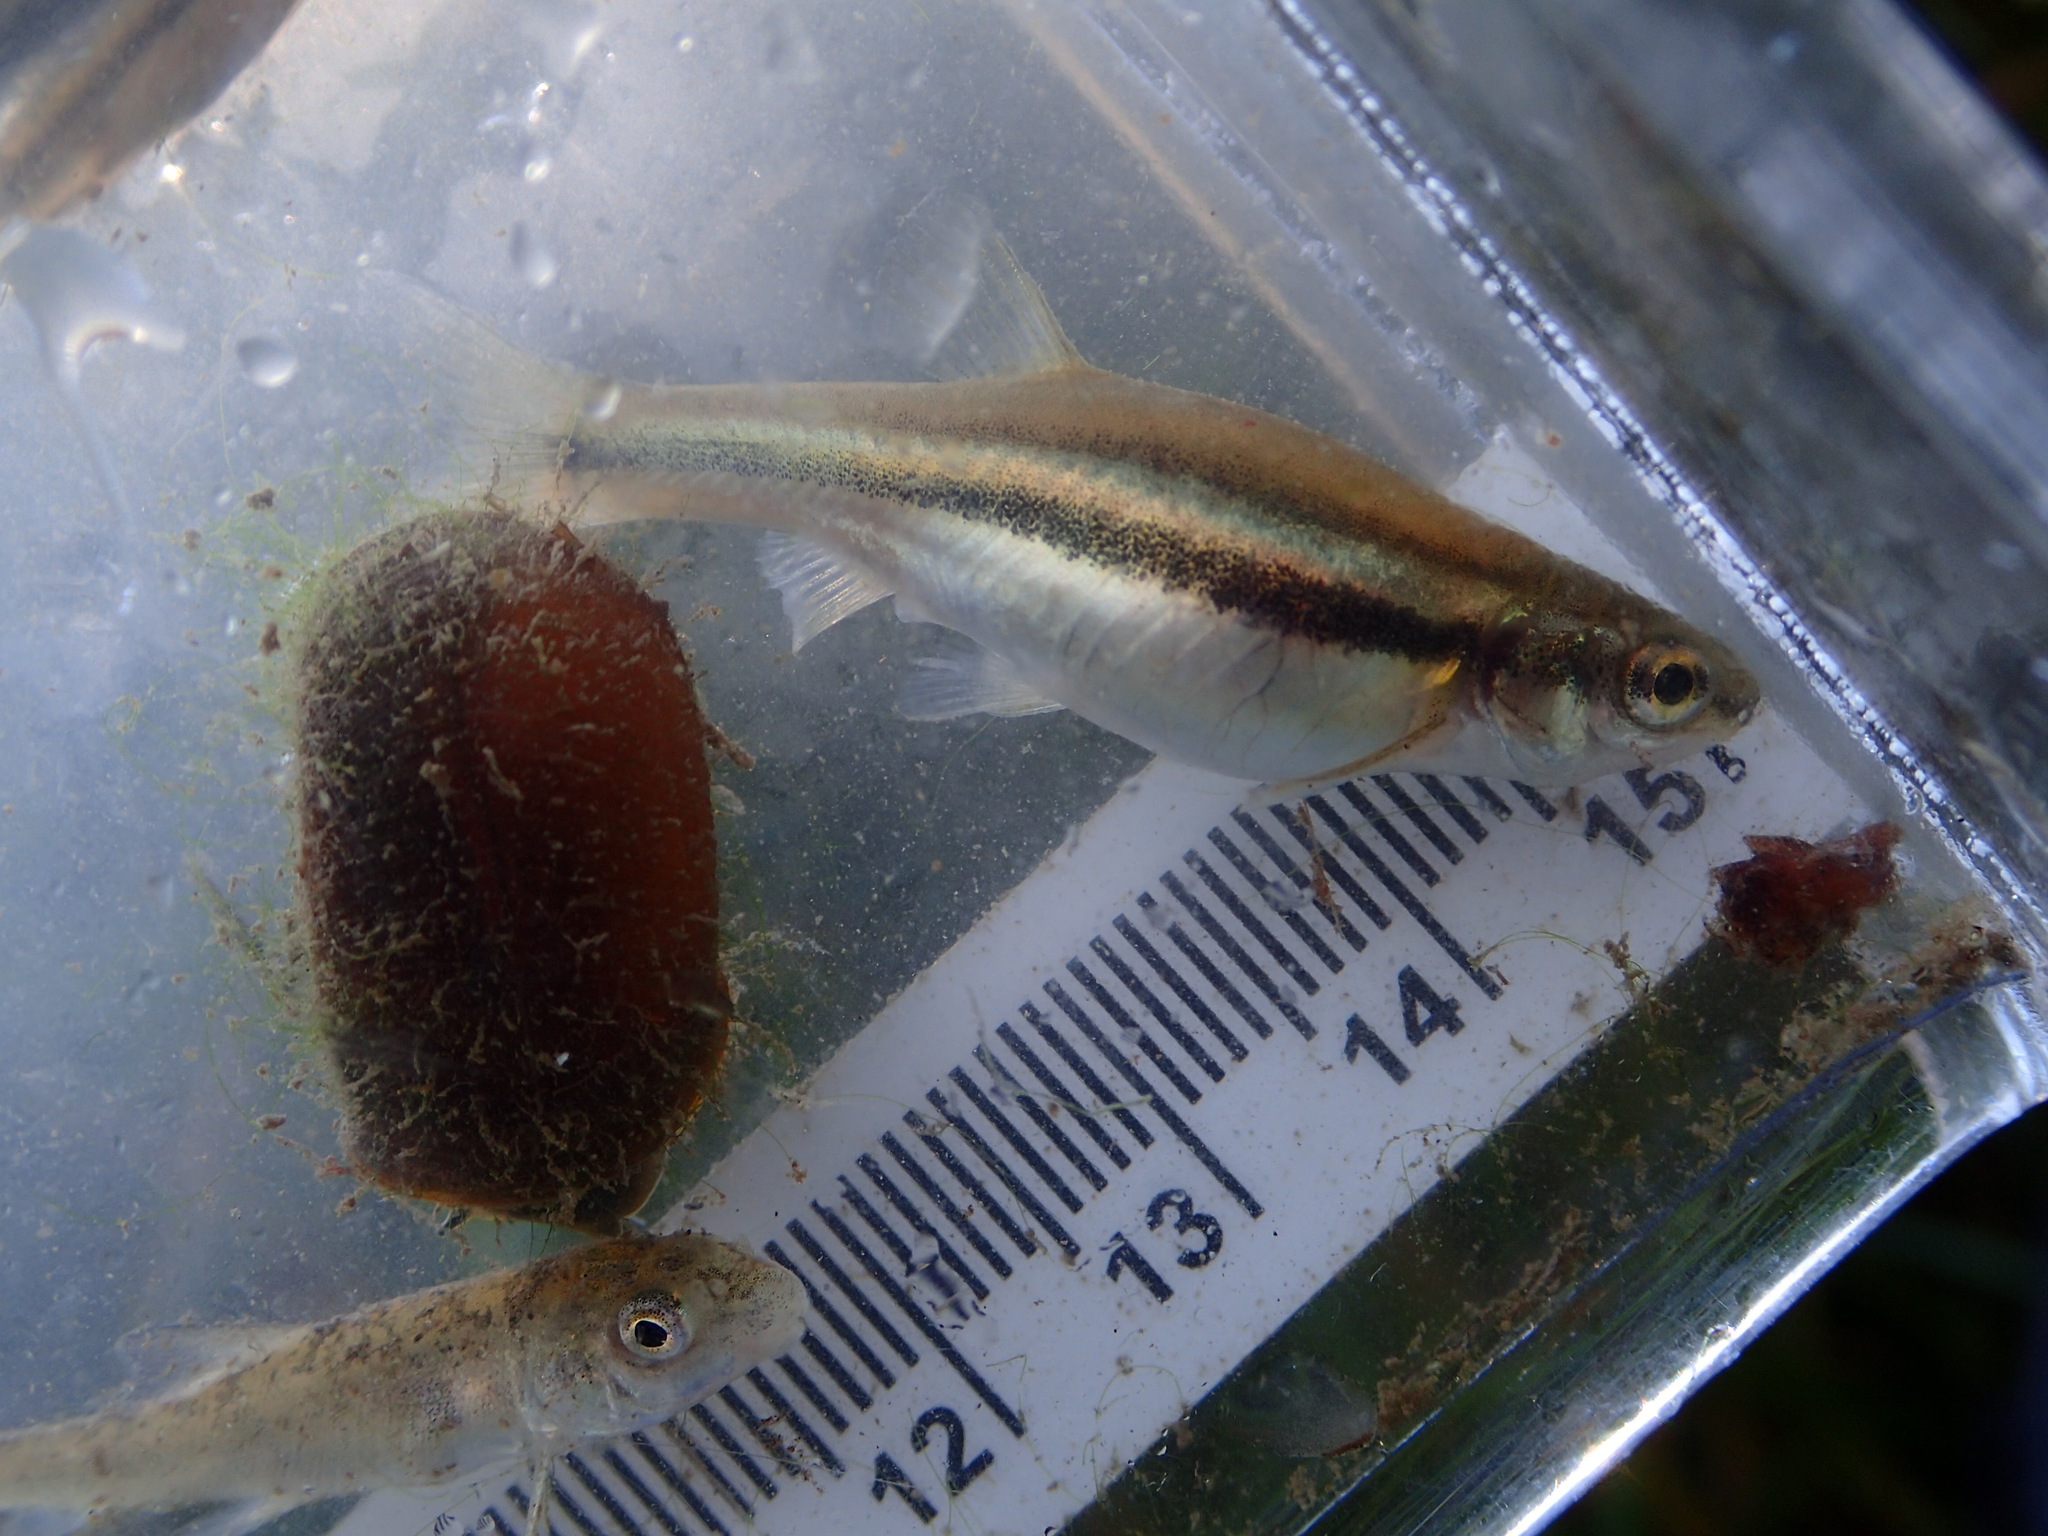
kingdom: Animalia
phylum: Chordata
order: Cypriniformes
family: Cyprinidae
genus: Chrosomus
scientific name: Chrosomus eos
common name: Northern redbelly dace
